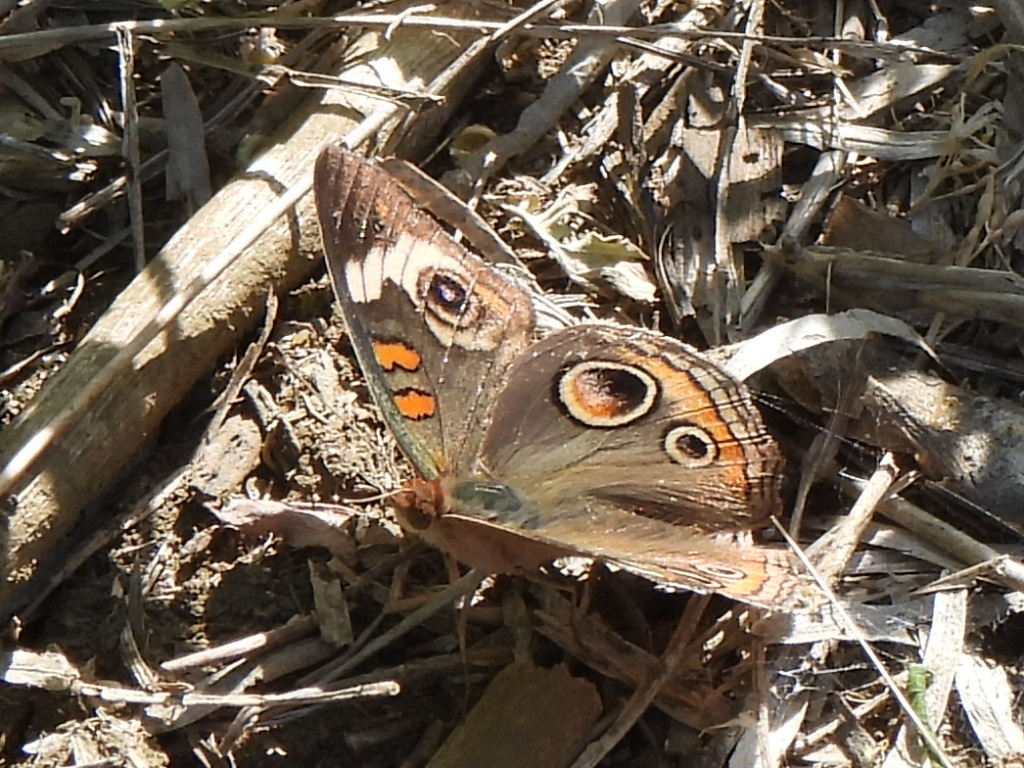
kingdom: Animalia
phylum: Arthropoda
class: Insecta
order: Lepidoptera
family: Nymphalidae
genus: Junonia
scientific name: Junonia coenia
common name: Common buckeye
